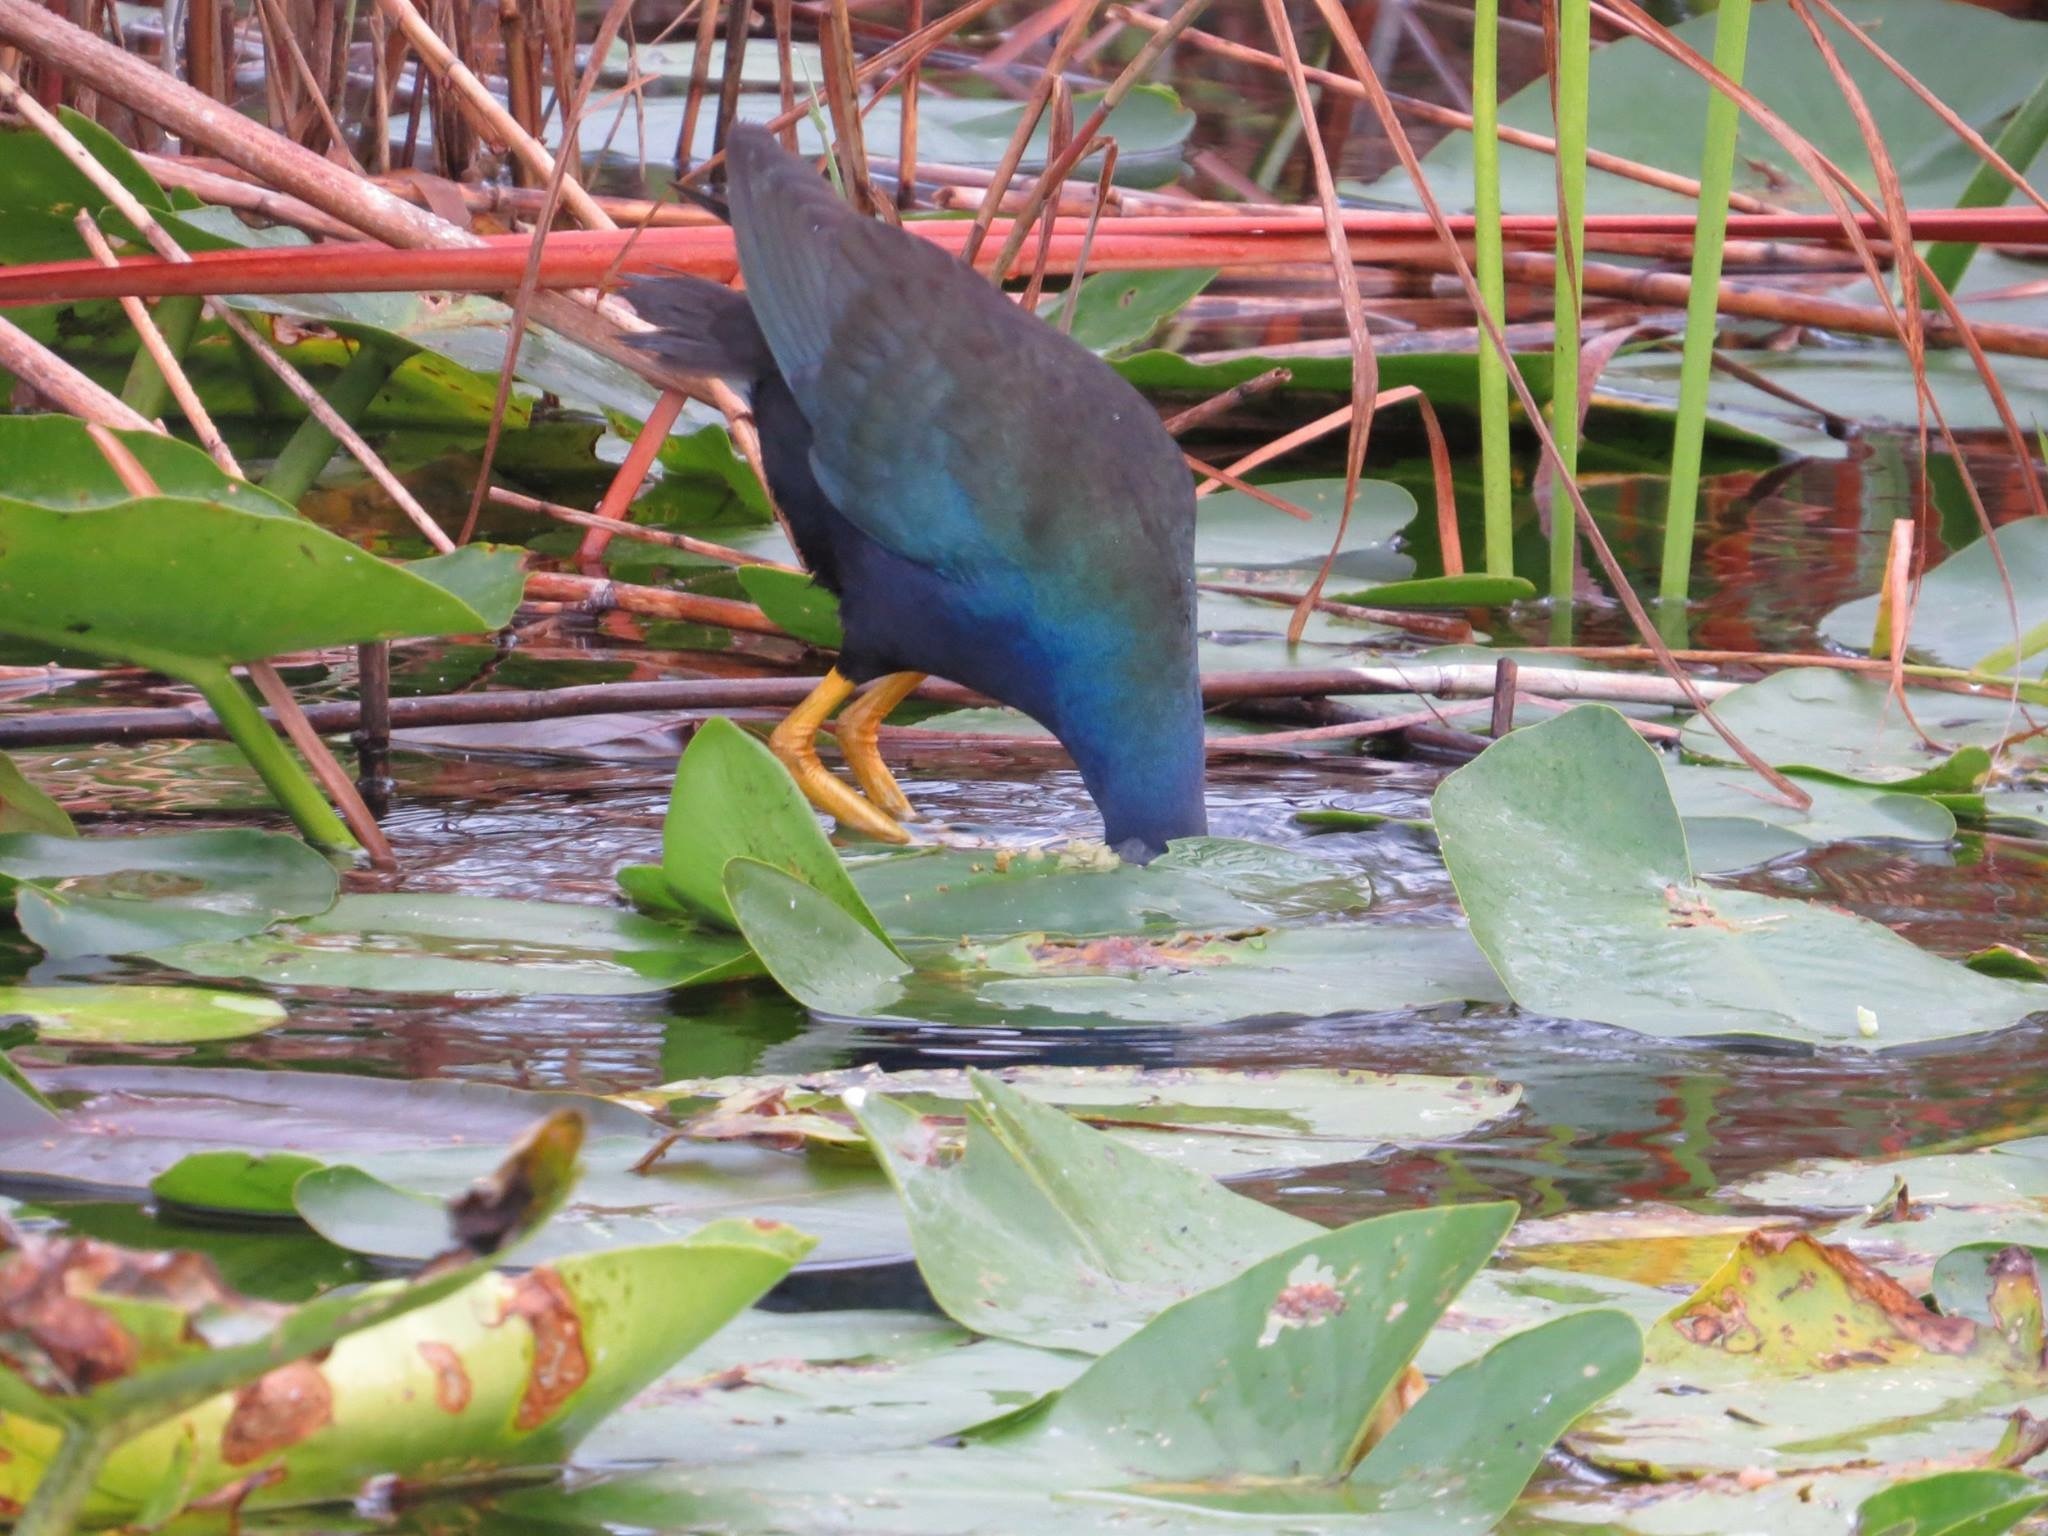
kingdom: Animalia
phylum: Chordata
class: Aves
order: Gruiformes
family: Rallidae
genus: Porphyrio
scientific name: Porphyrio martinica
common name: Purple gallinule
